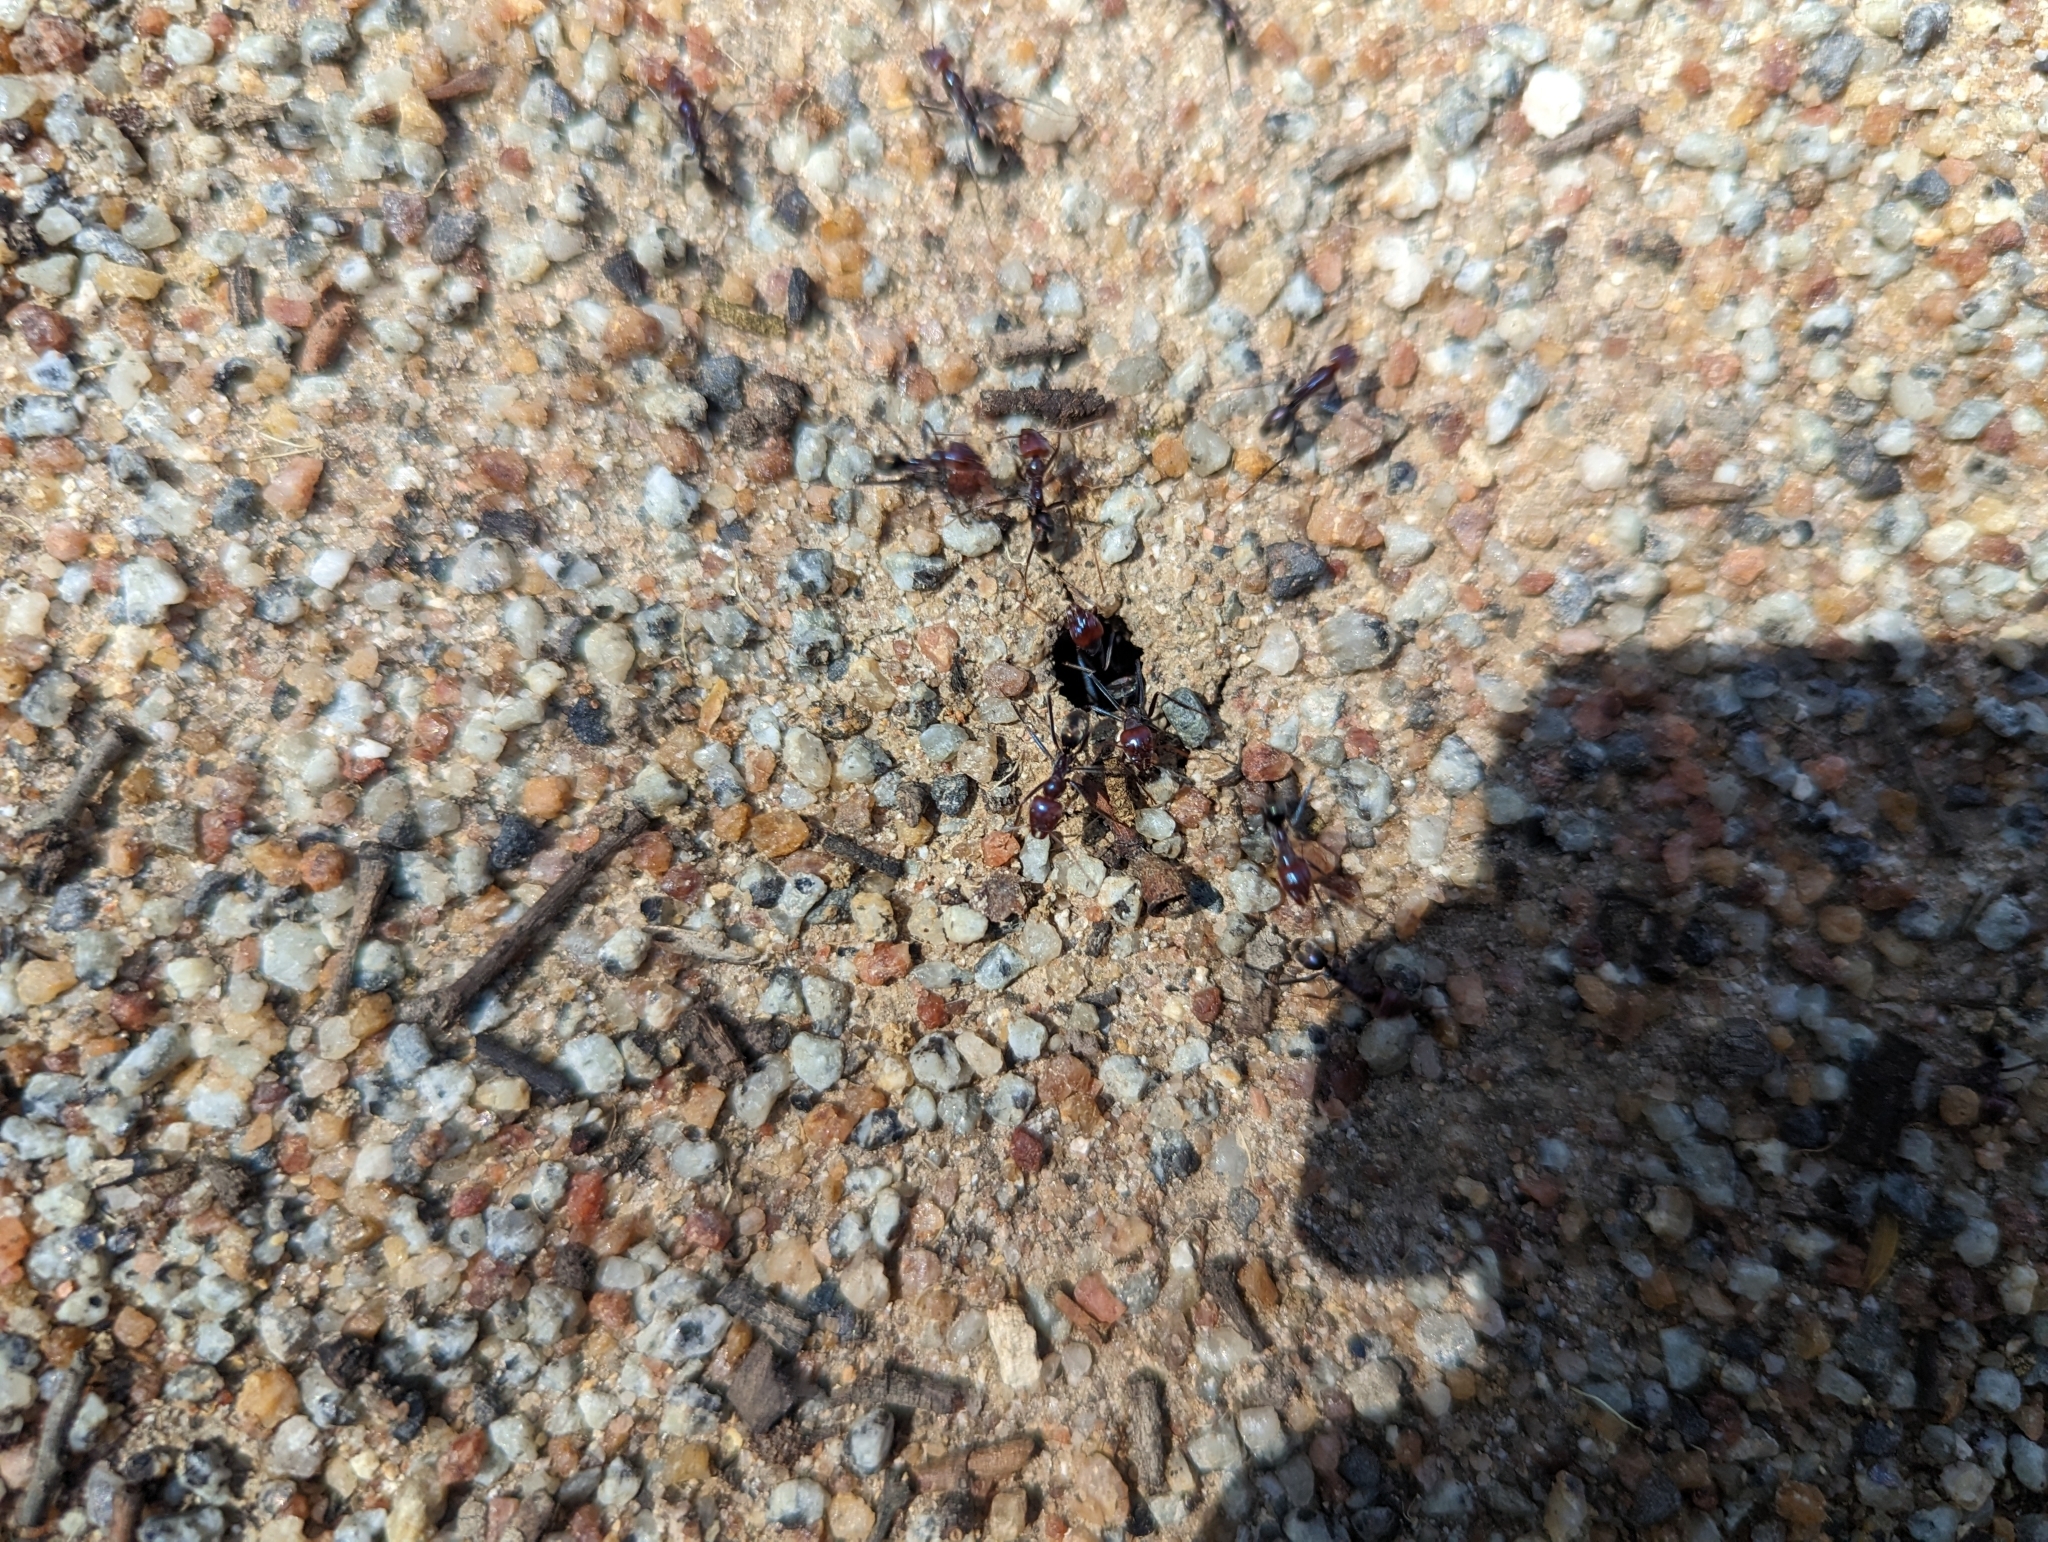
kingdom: Animalia
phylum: Arthropoda
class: Insecta
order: Hymenoptera
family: Formicidae
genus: Iridomyrmex
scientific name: Iridomyrmex purpureus
